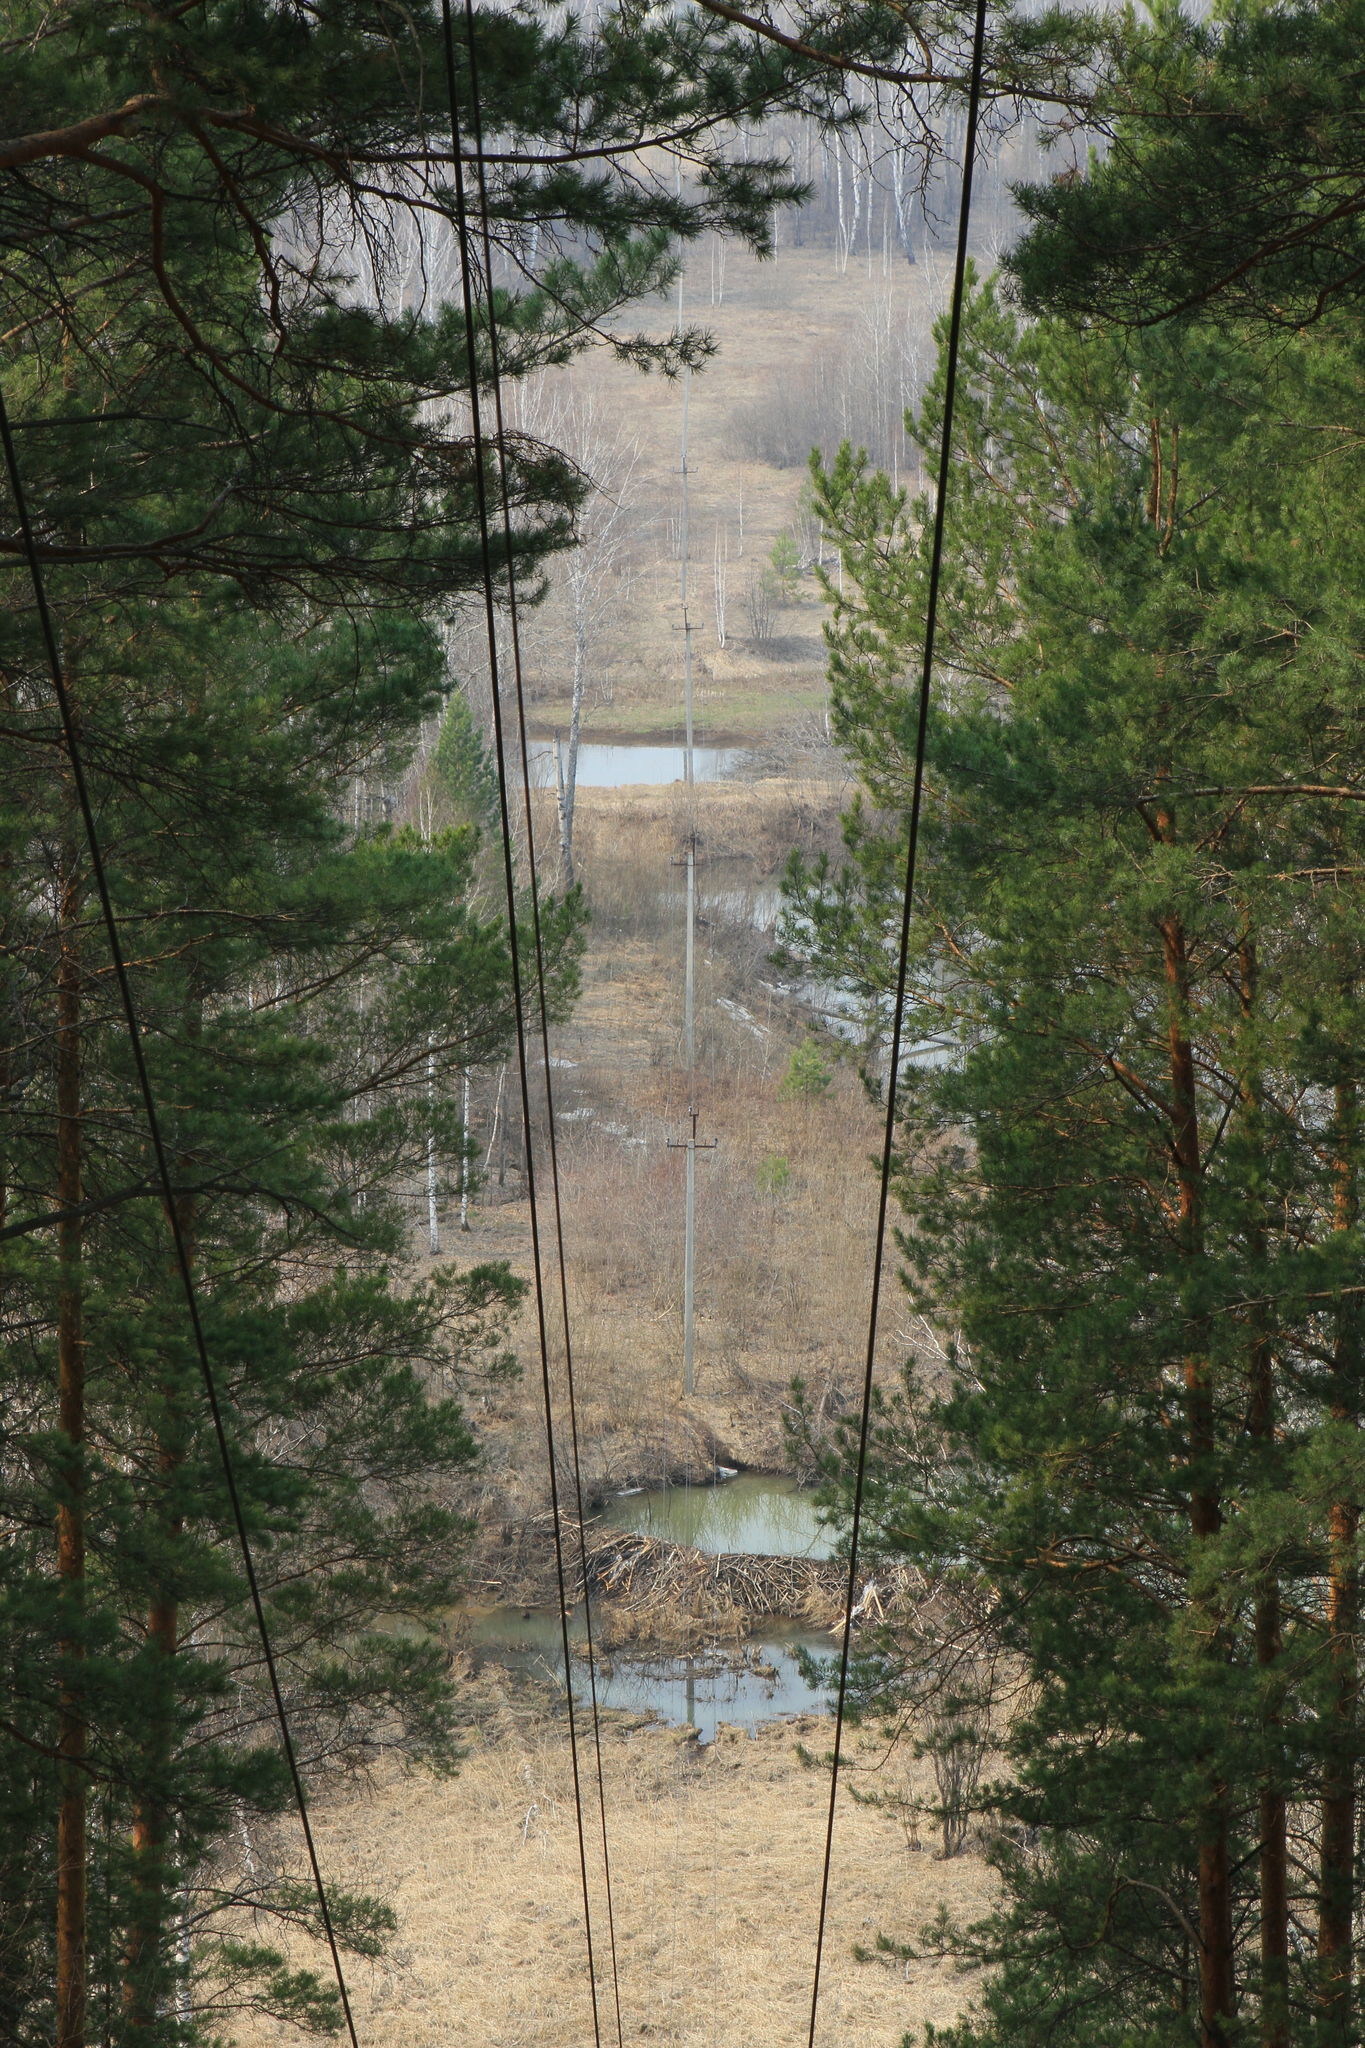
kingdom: Plantae
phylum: Tracheophyta
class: Pinopsida
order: Pinales
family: Pinaceae
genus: Pinus
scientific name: Pinus sylvestris
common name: Scots pine
